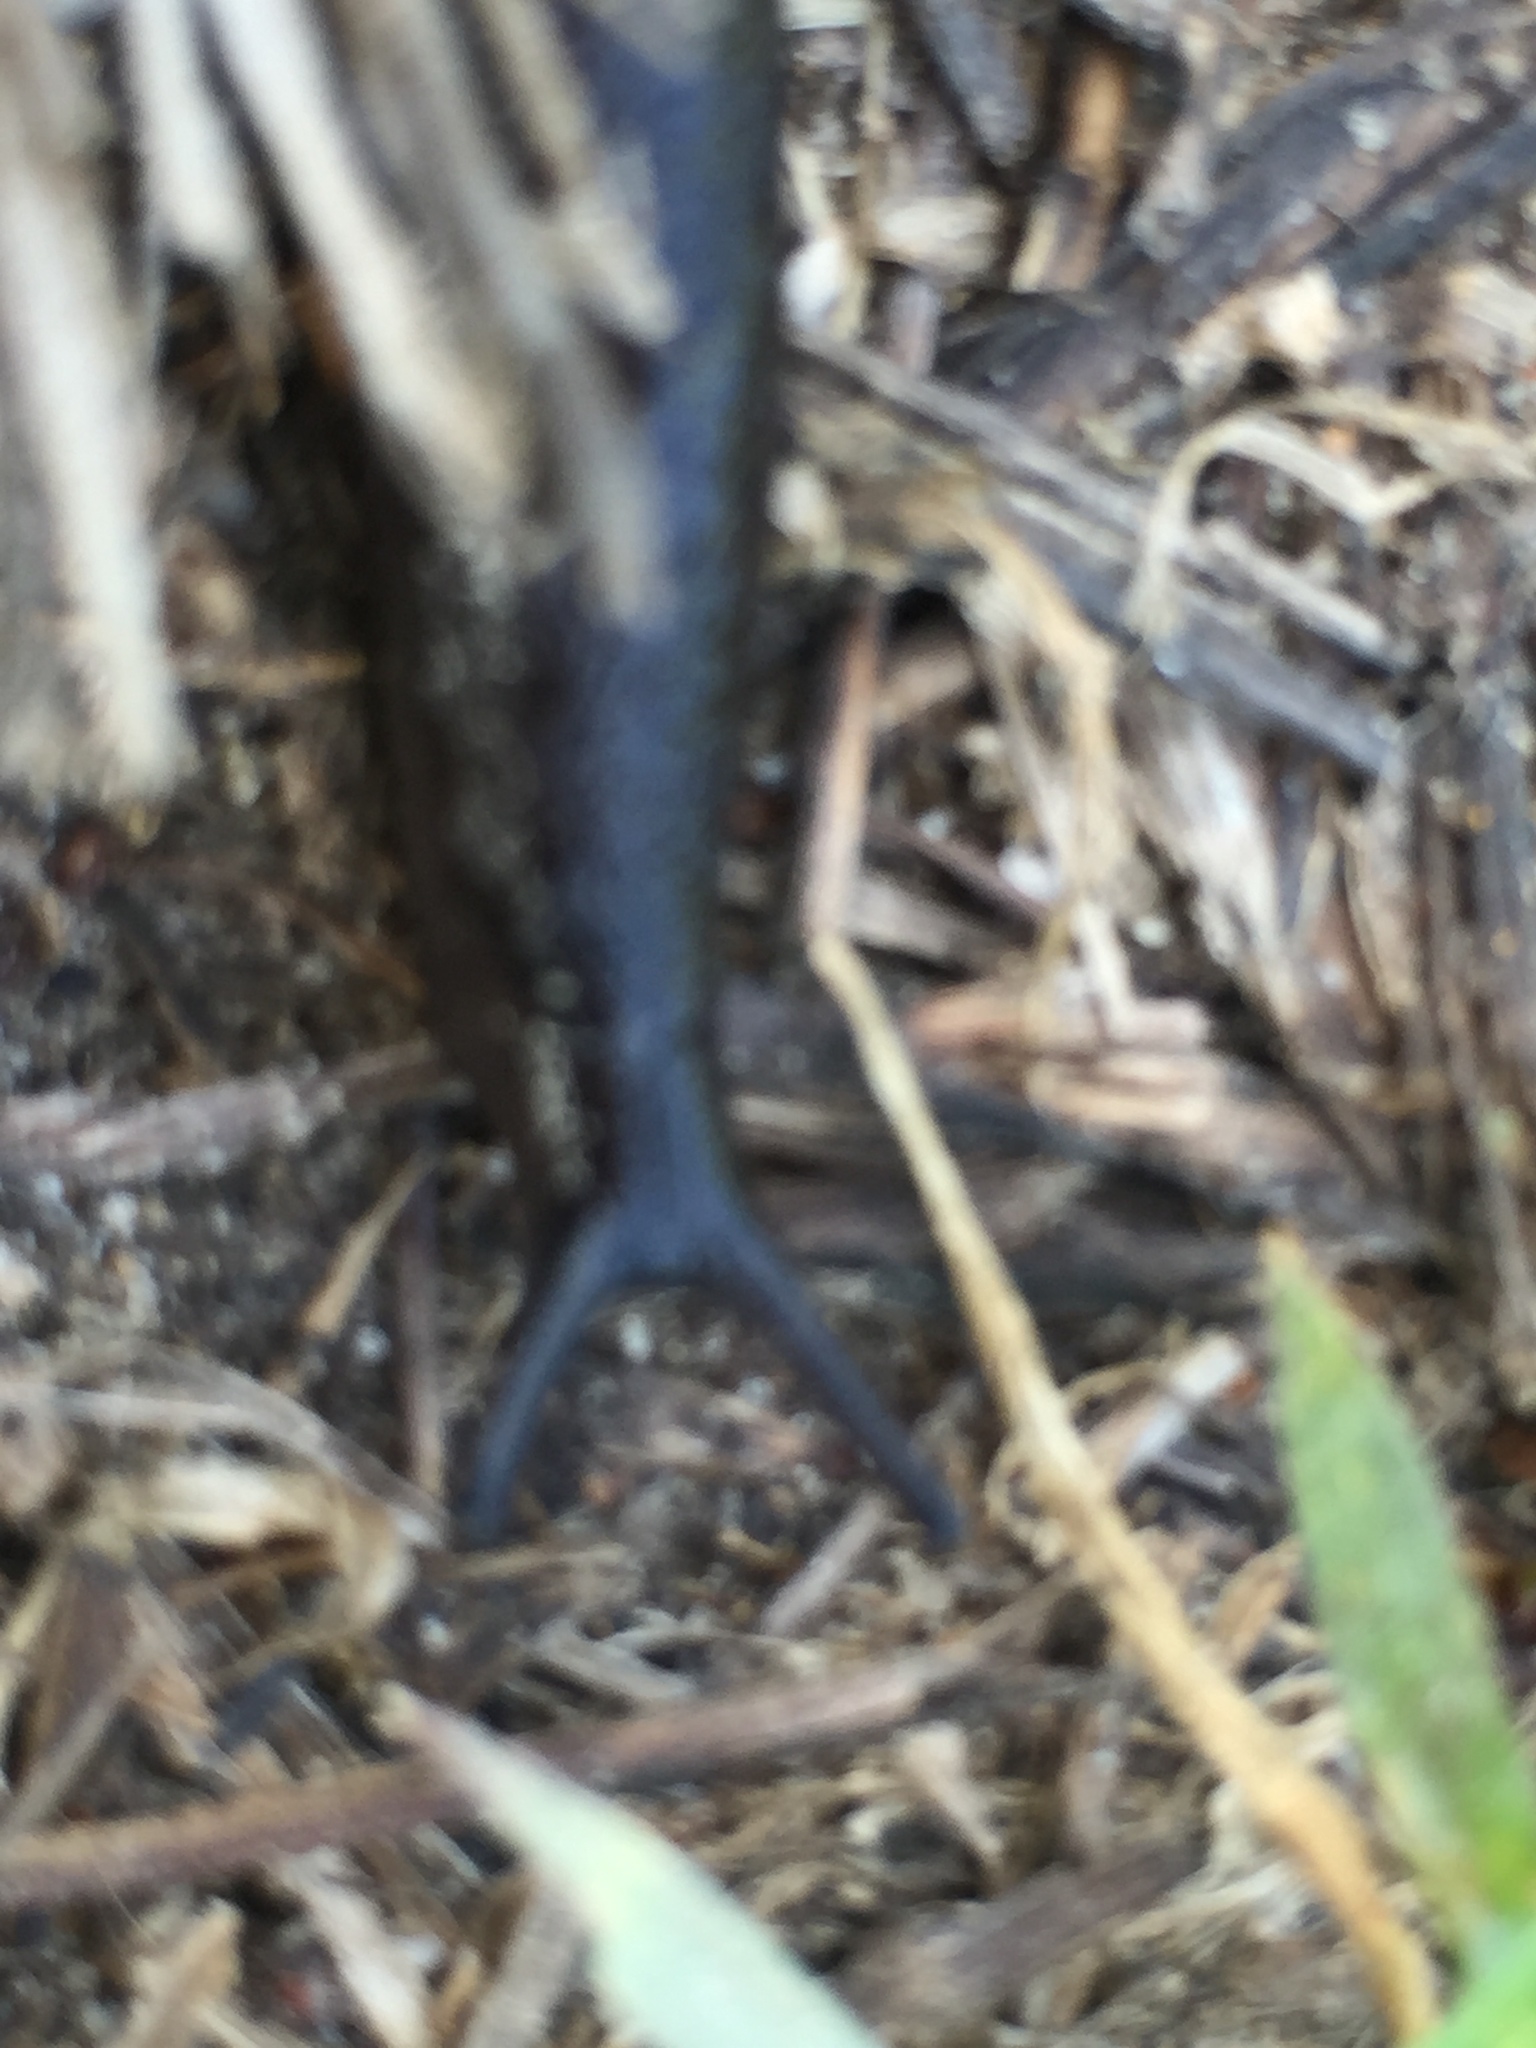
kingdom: Animalia
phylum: Mollusca
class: Gastropoda
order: Stylommatophora
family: Milacidae
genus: Milax
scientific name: Milax gagates
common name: Greenhouse slug
